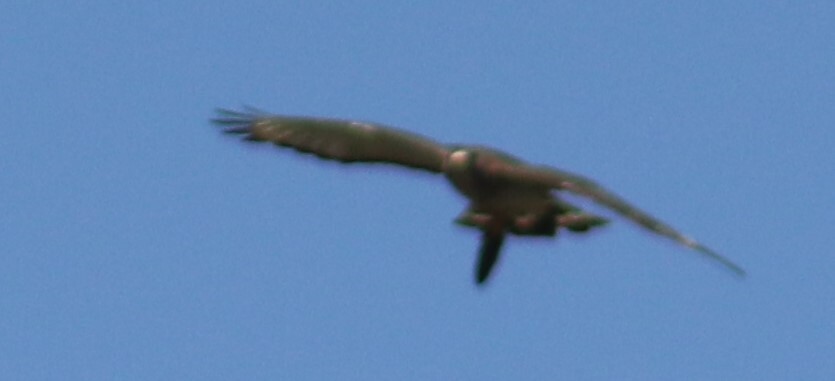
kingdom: Animalia
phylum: Chordata
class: Aves
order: Accipitriformes
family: Accipitridae
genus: Buteo
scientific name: Buteo platypterus
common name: Broad-winged hawk
